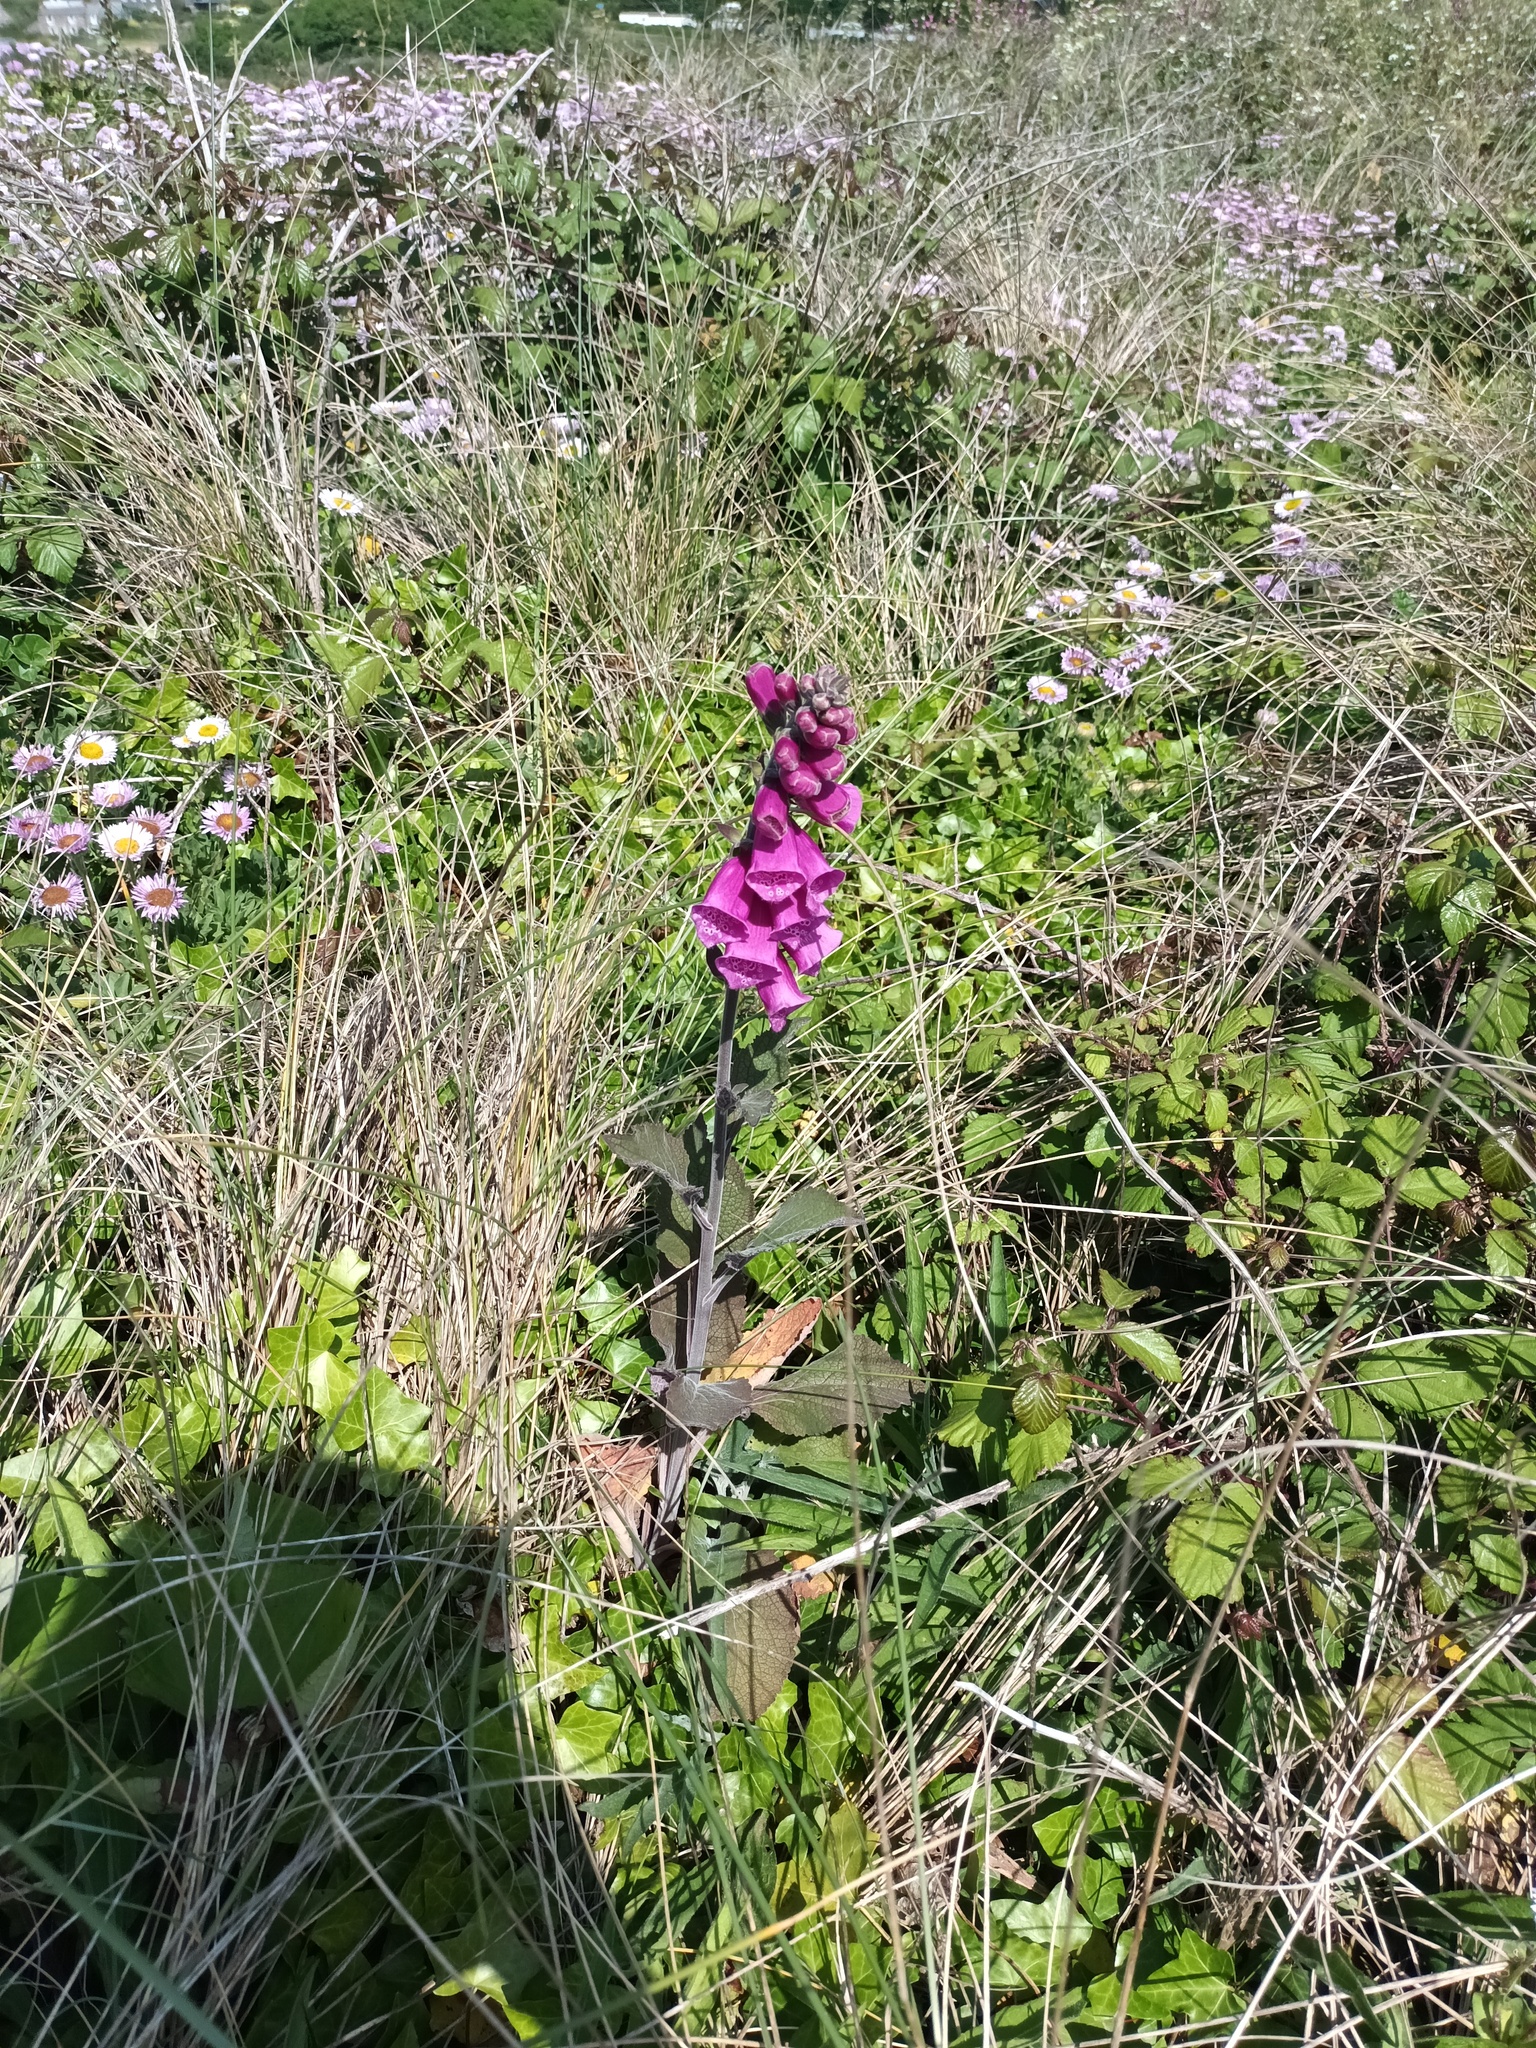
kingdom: Plantae
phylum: Tracheophyta
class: Magnoliopsida
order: Lamiales
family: Plantaginaceae
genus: Digitalis
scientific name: Digitalis purpurea
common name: Foxglove
